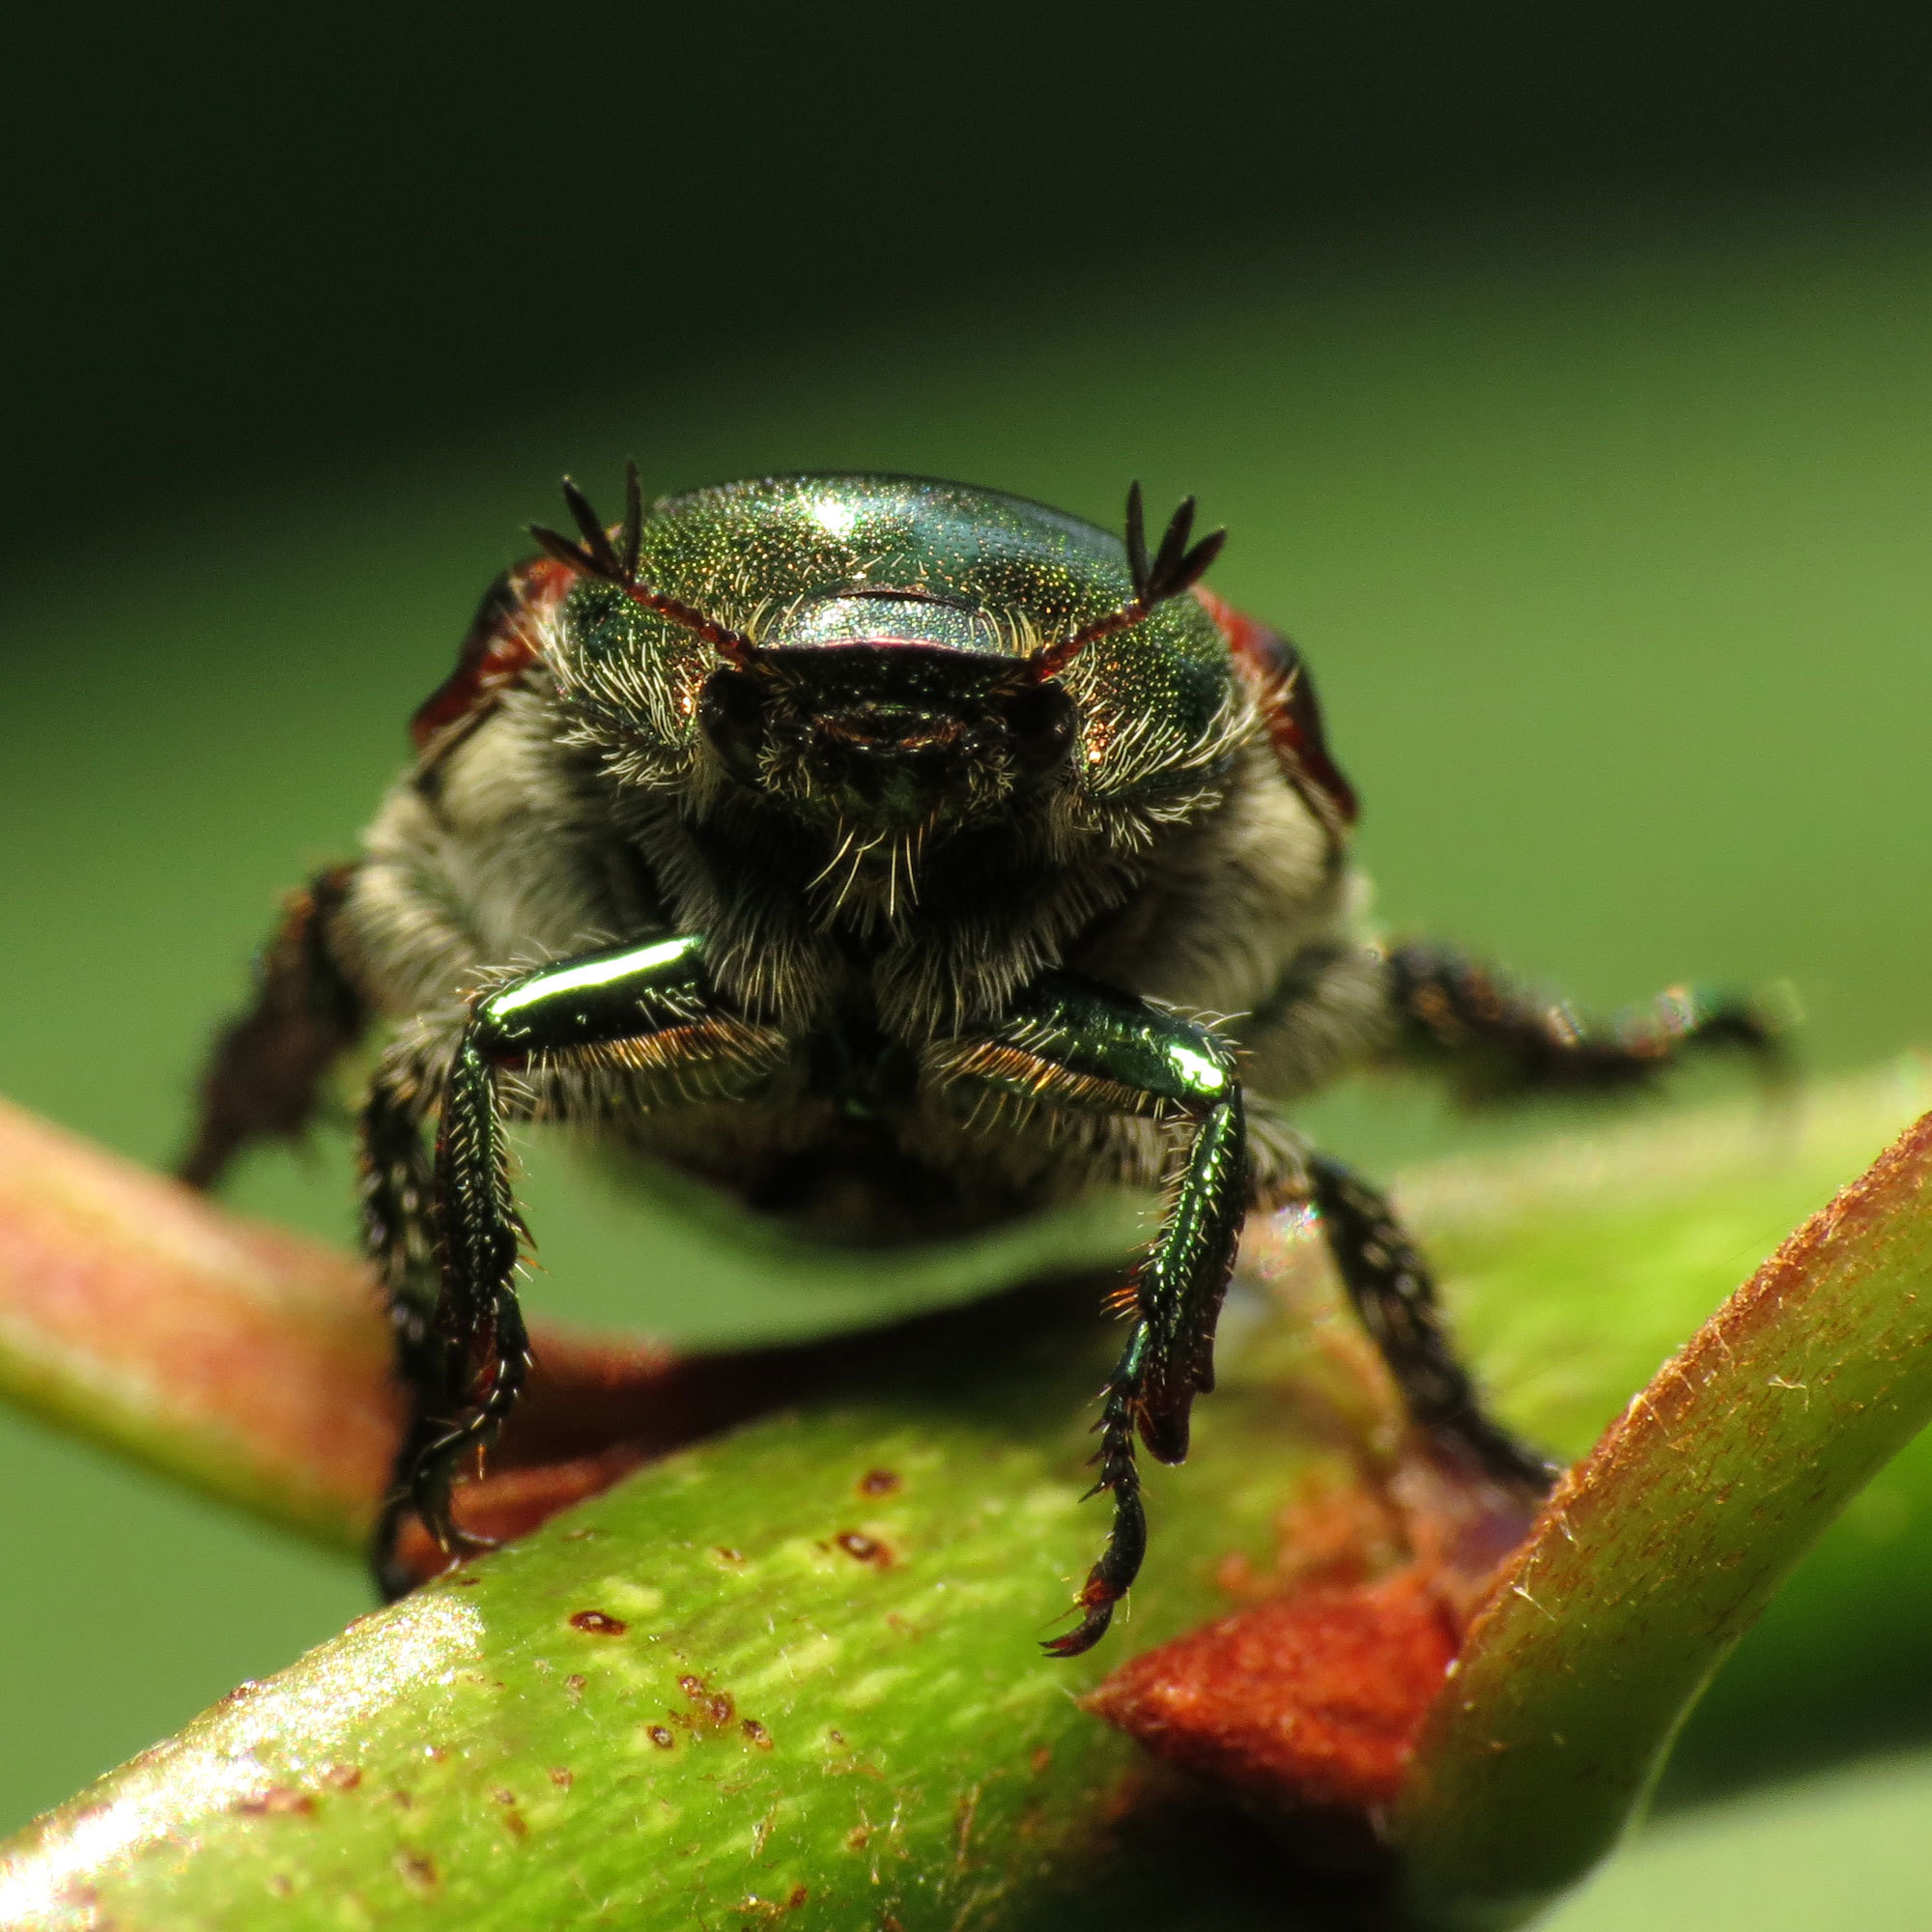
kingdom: Animalia
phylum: Arthropoda
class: Insecta
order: Coleoptera
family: Scarabaeidae
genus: Popillia
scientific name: Popillia japonica
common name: Japanese beetle
